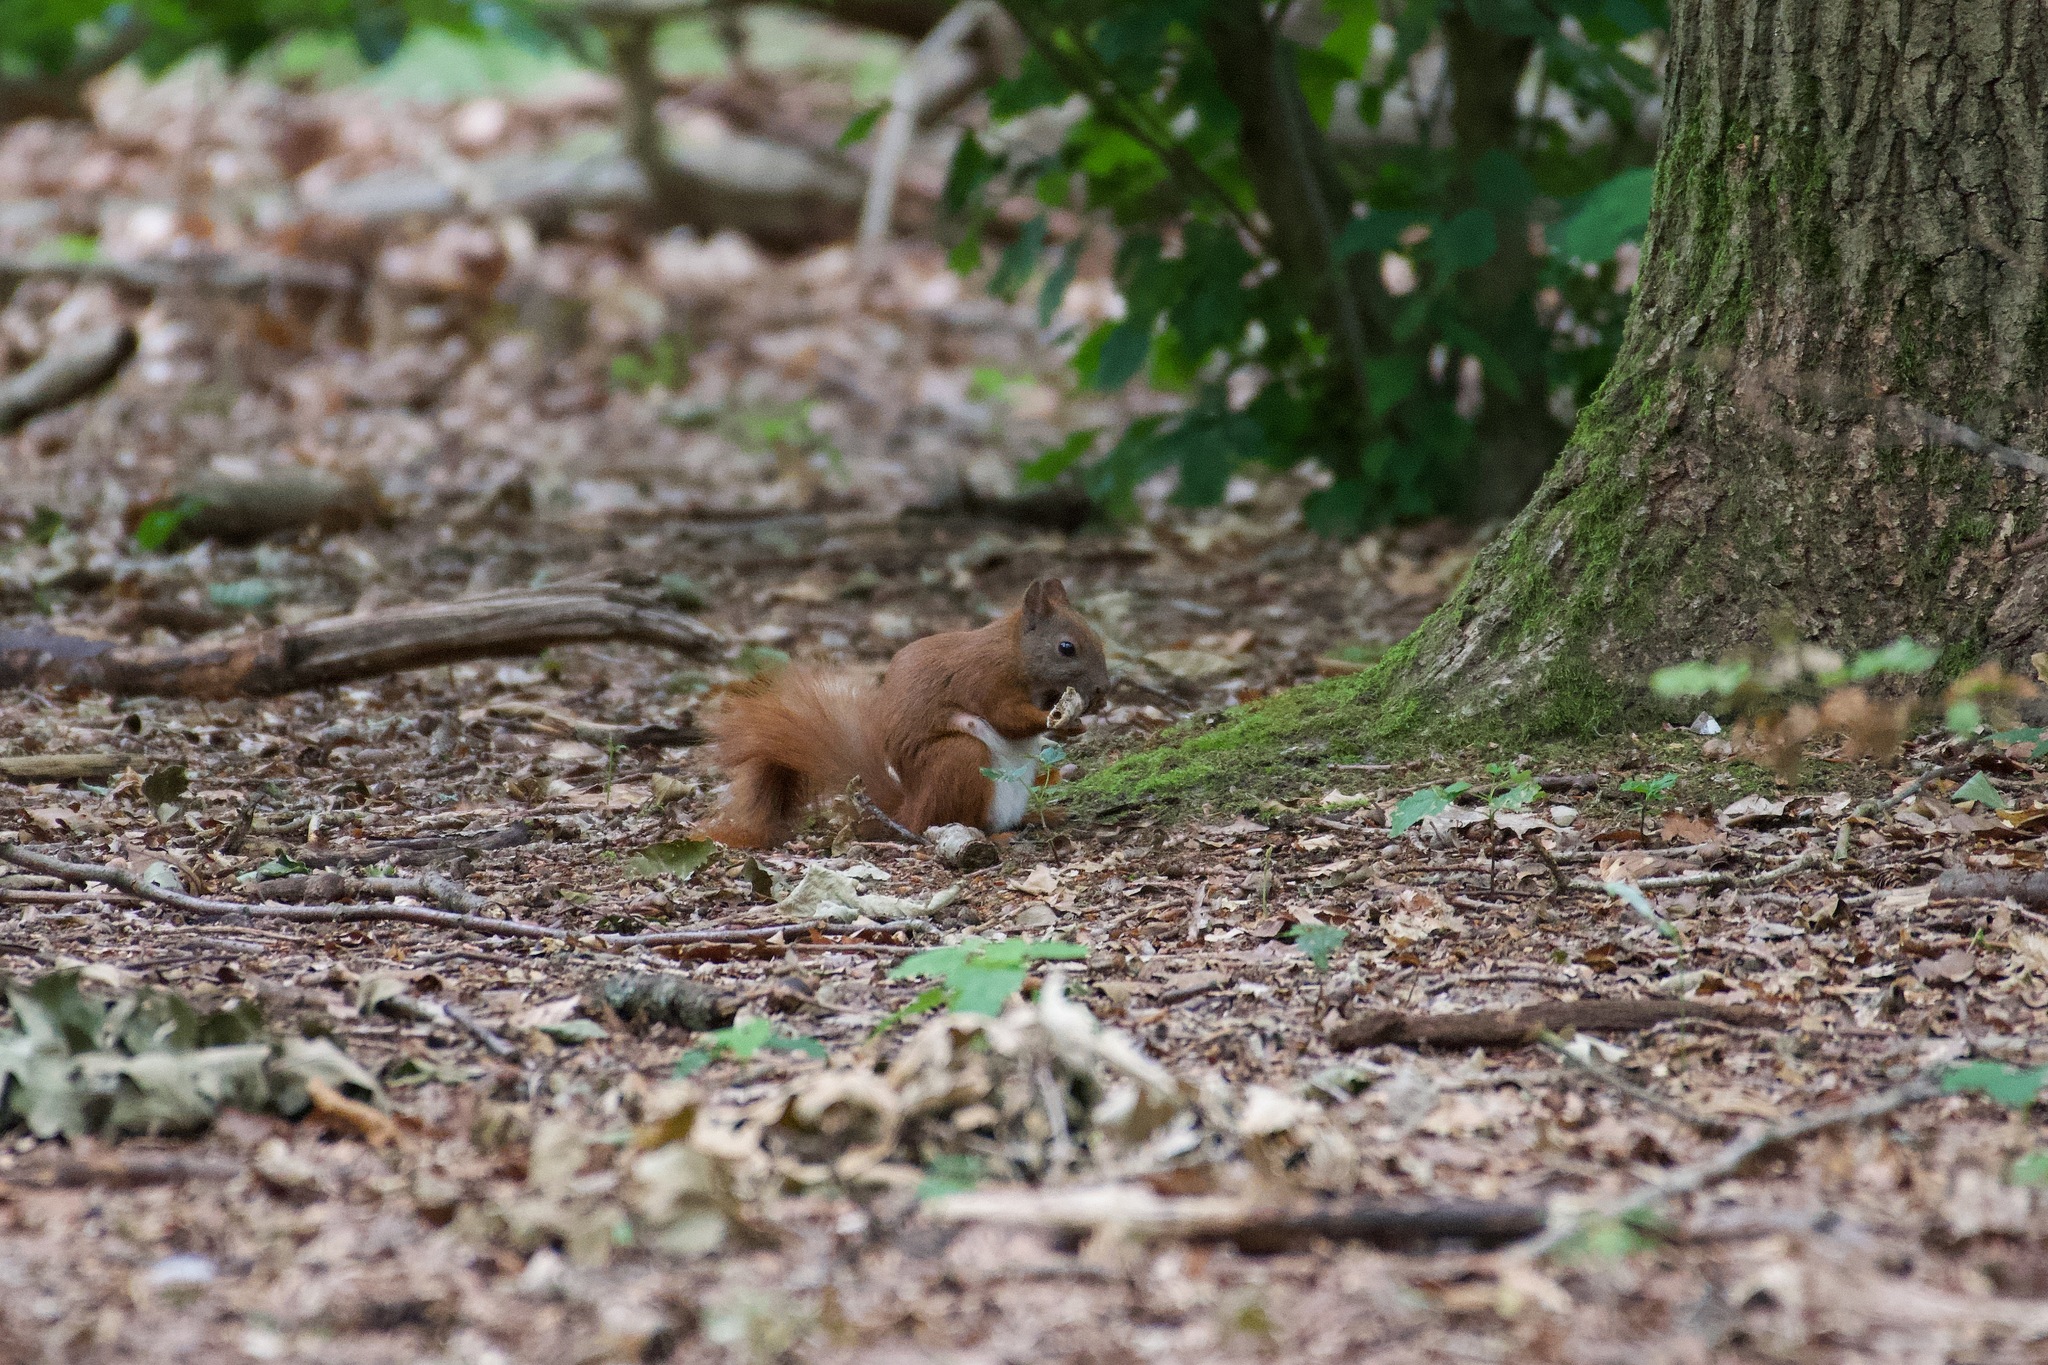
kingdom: Animalia
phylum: Chordata
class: Mammalia
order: Rodentia
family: Sciuridae
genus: Sciurus
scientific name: Sciurus vulgaris
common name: Eurasian red squirrel
